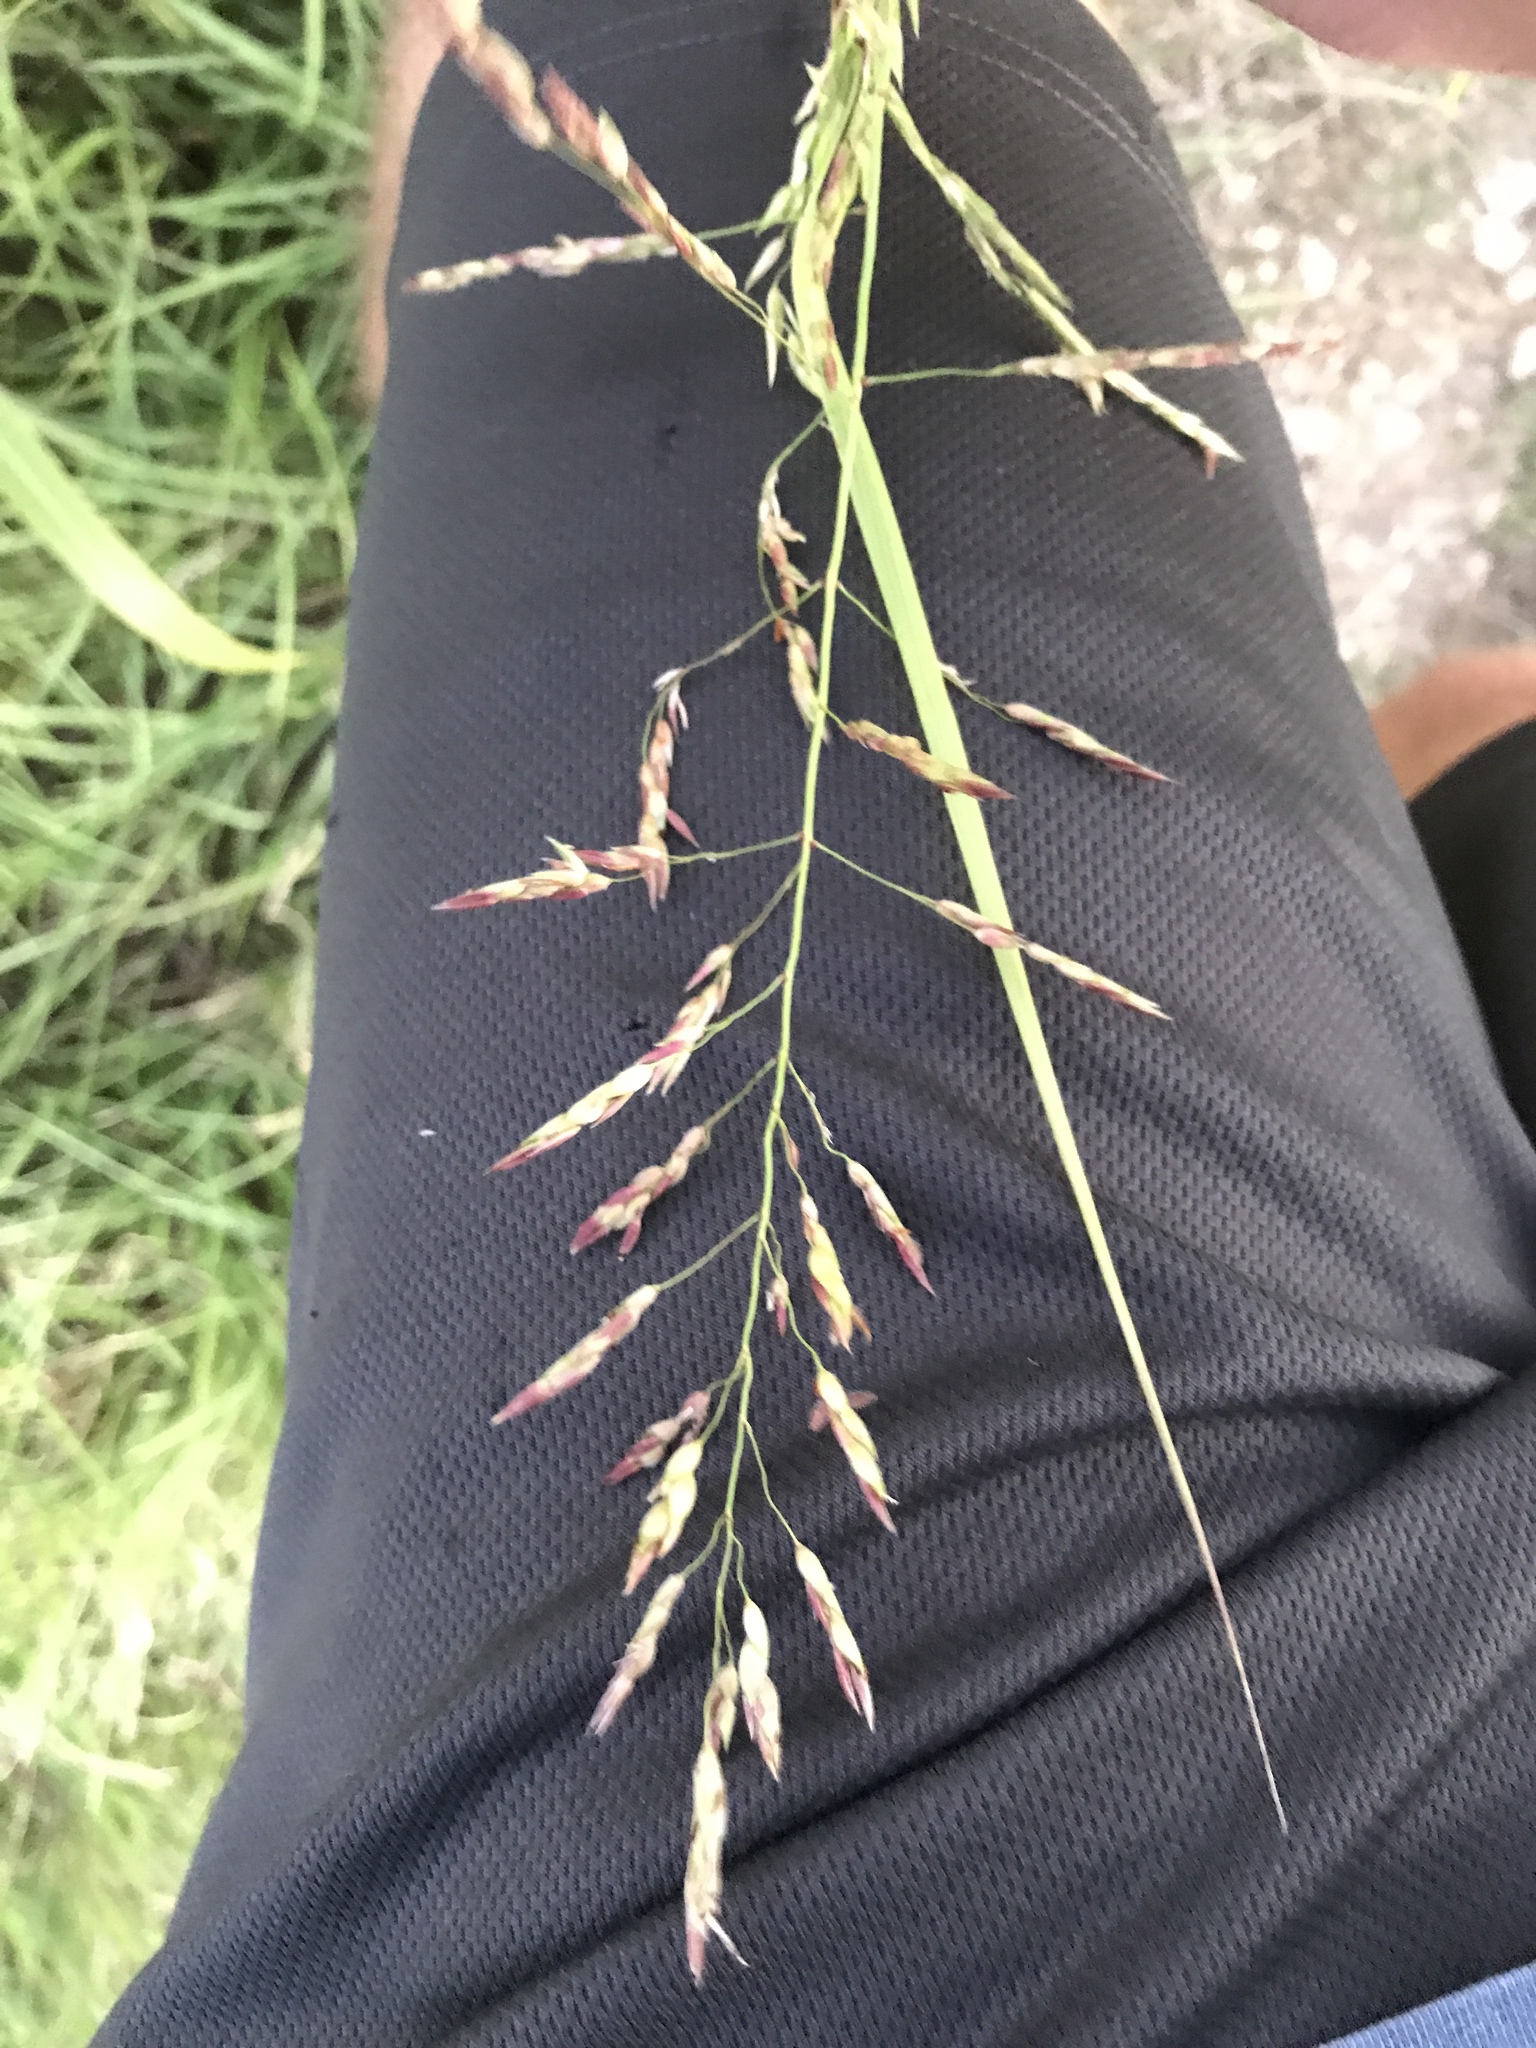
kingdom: Plantae
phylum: Tracheophyta
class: Liliopsida
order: Poales
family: Poaceae
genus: Sorghum
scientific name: Sorghum halepense
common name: Johnson-grass
